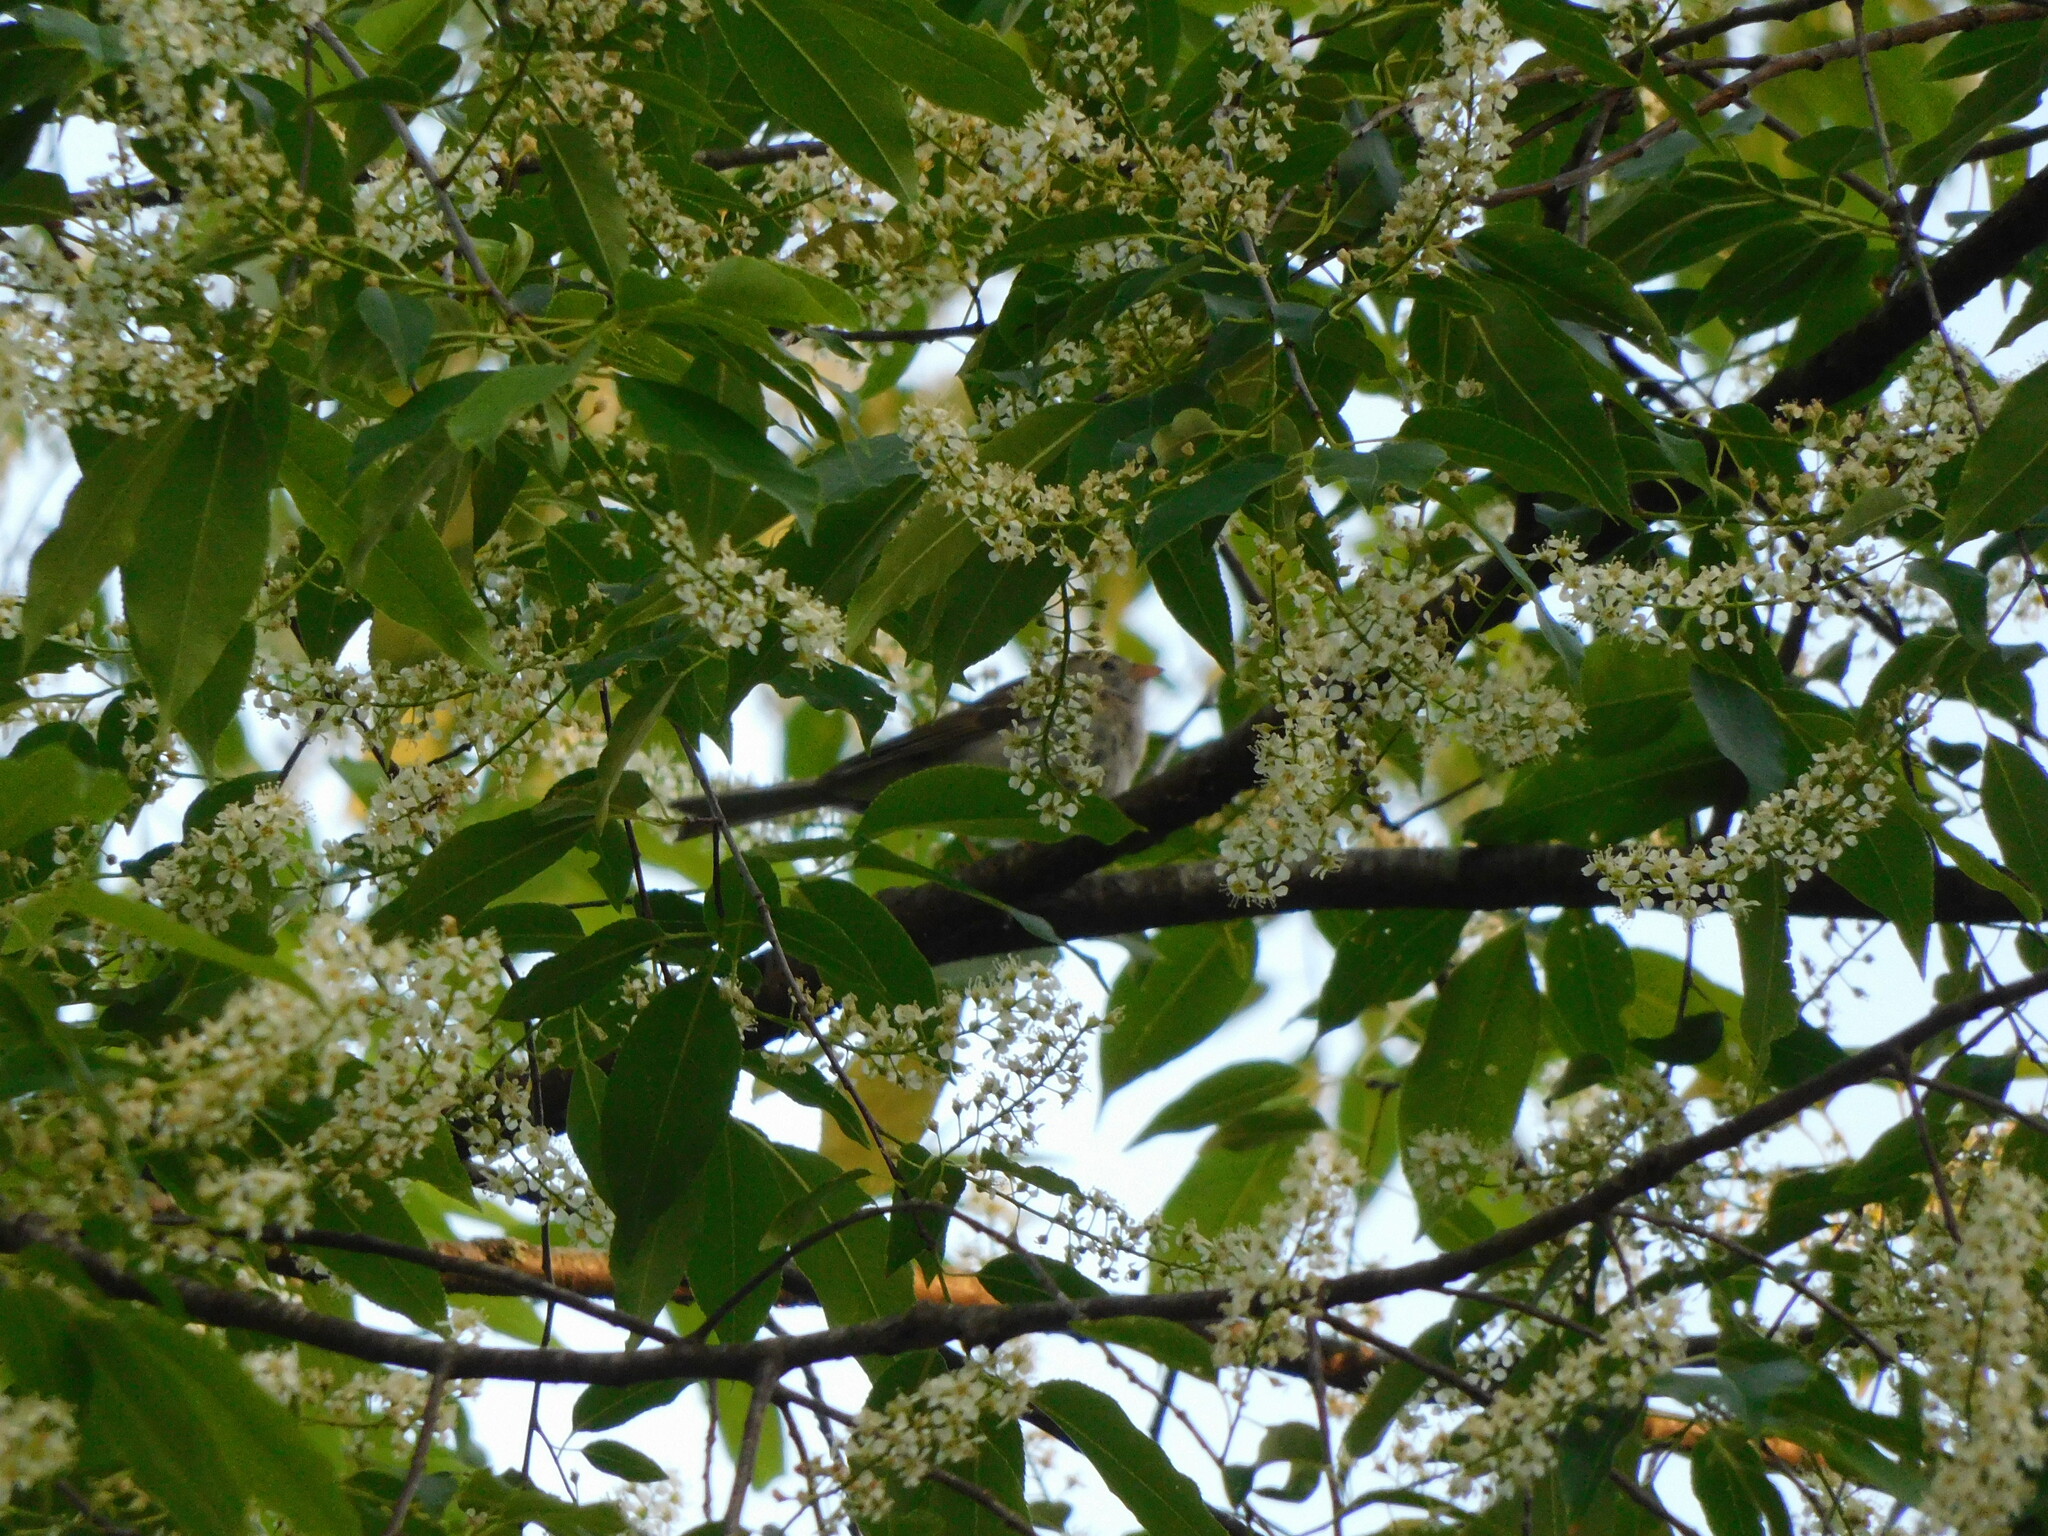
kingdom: Animalia
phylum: Chordata
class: Aves
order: Passeriformes
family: Passerellidae
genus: Spizella
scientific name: Spizella pusilla
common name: Field sparrow
